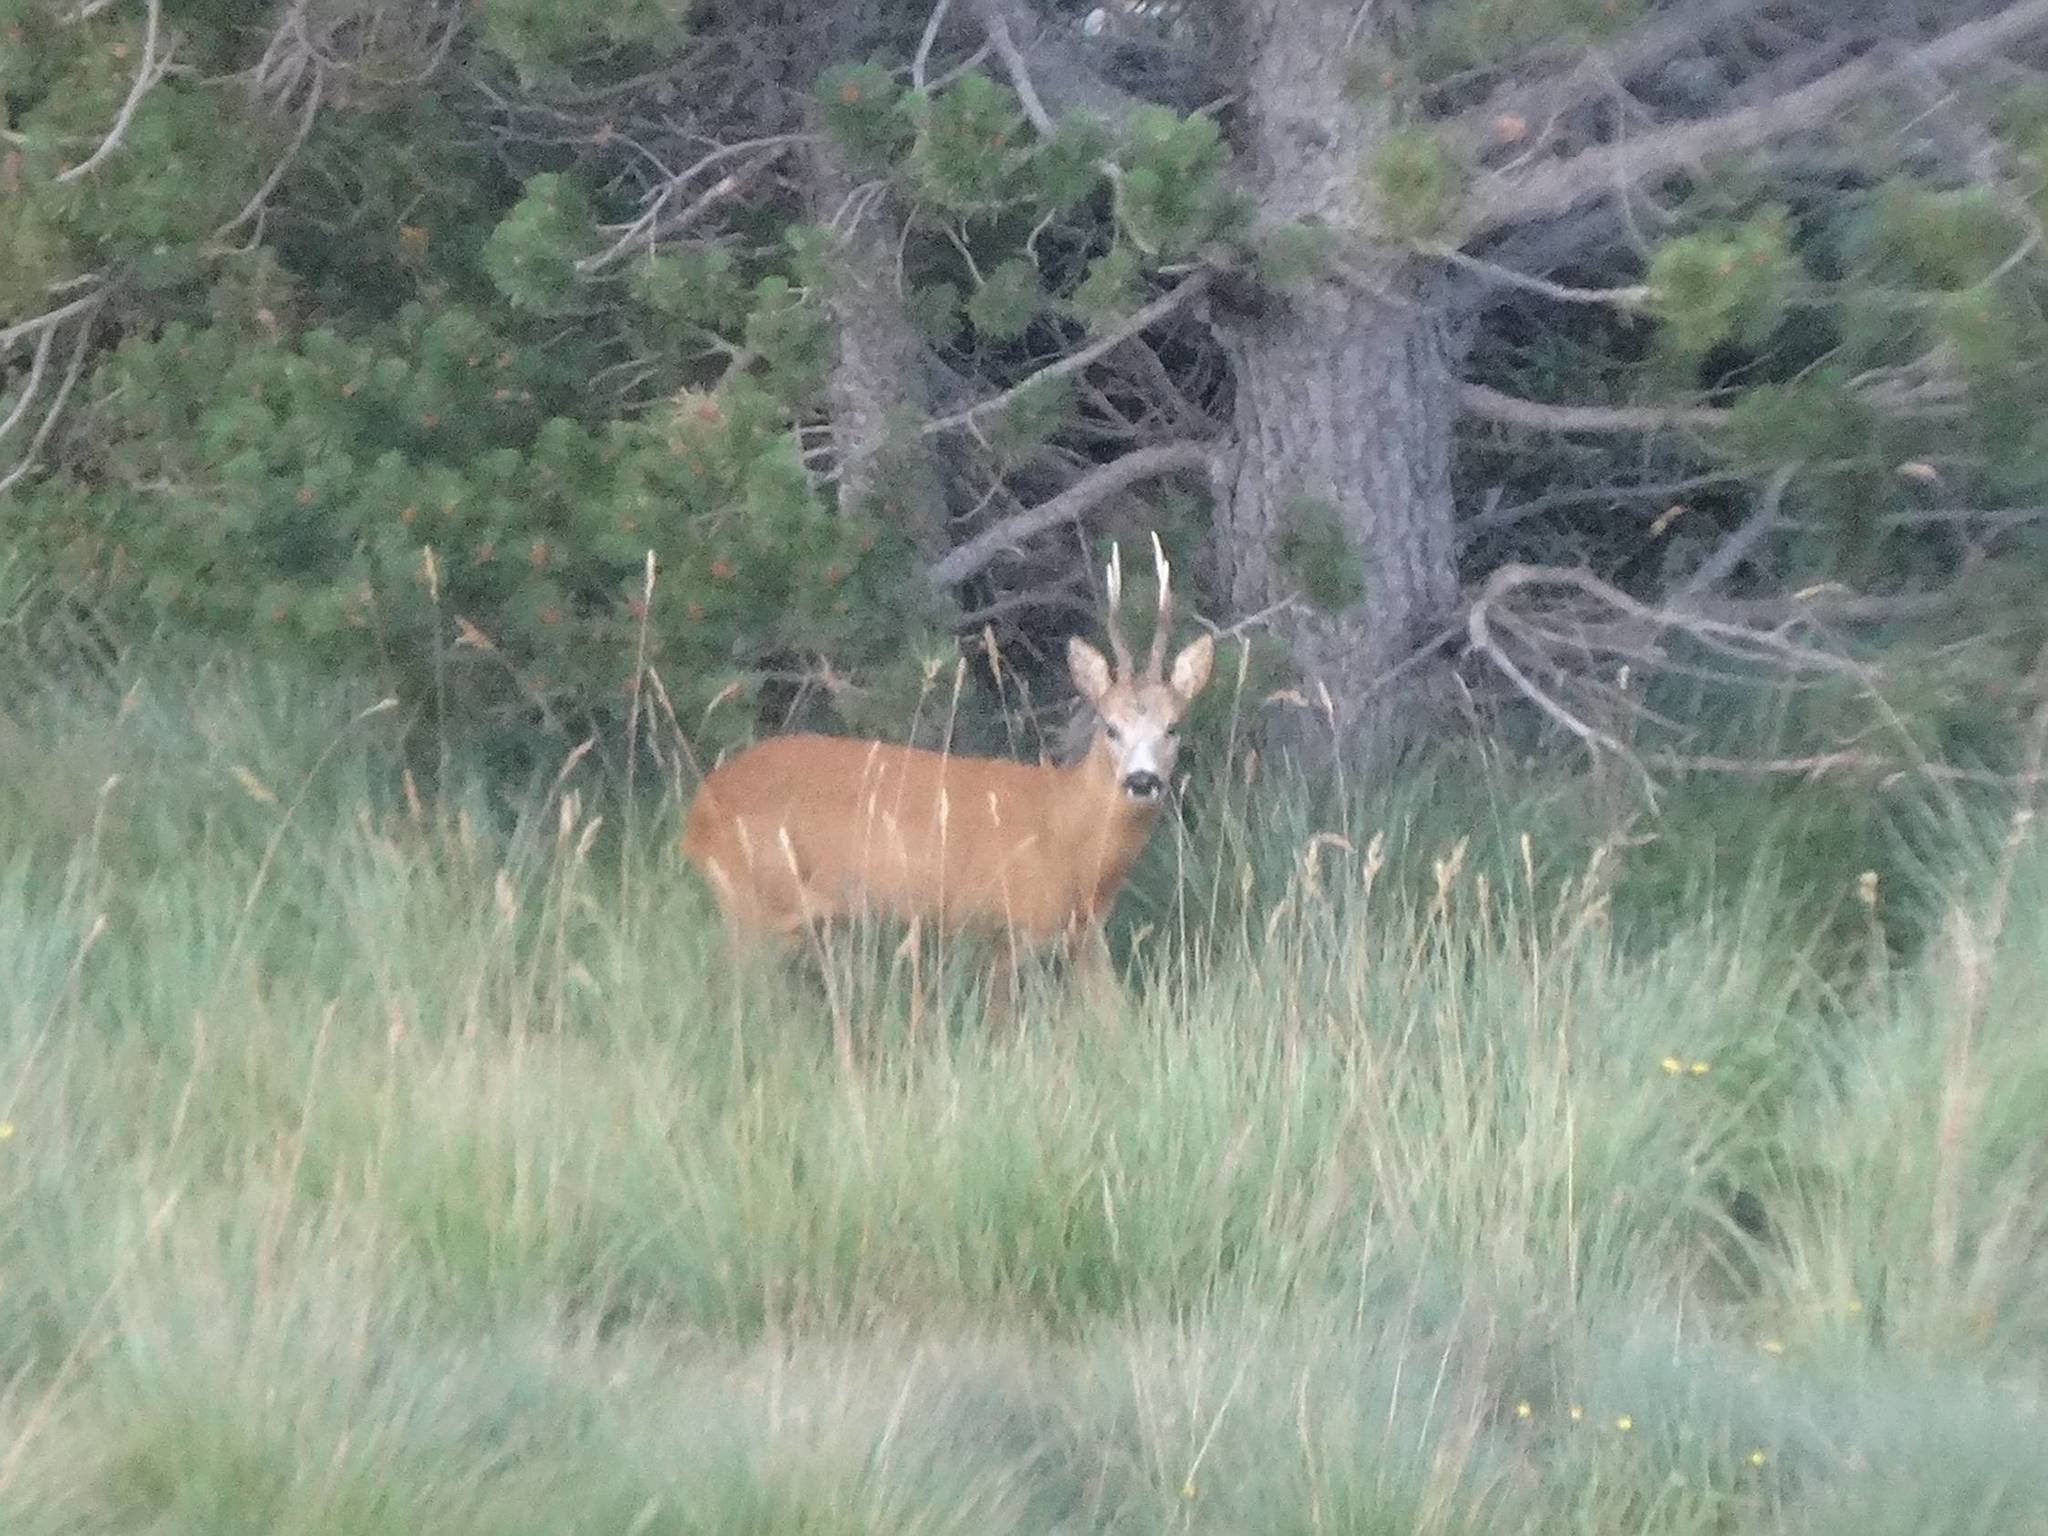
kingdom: Animalia
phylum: Chordata
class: Mammalia
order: Artiodactyla
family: Cervidae
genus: Capreolus
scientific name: Capreolus capreolus
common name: Western roe deer
